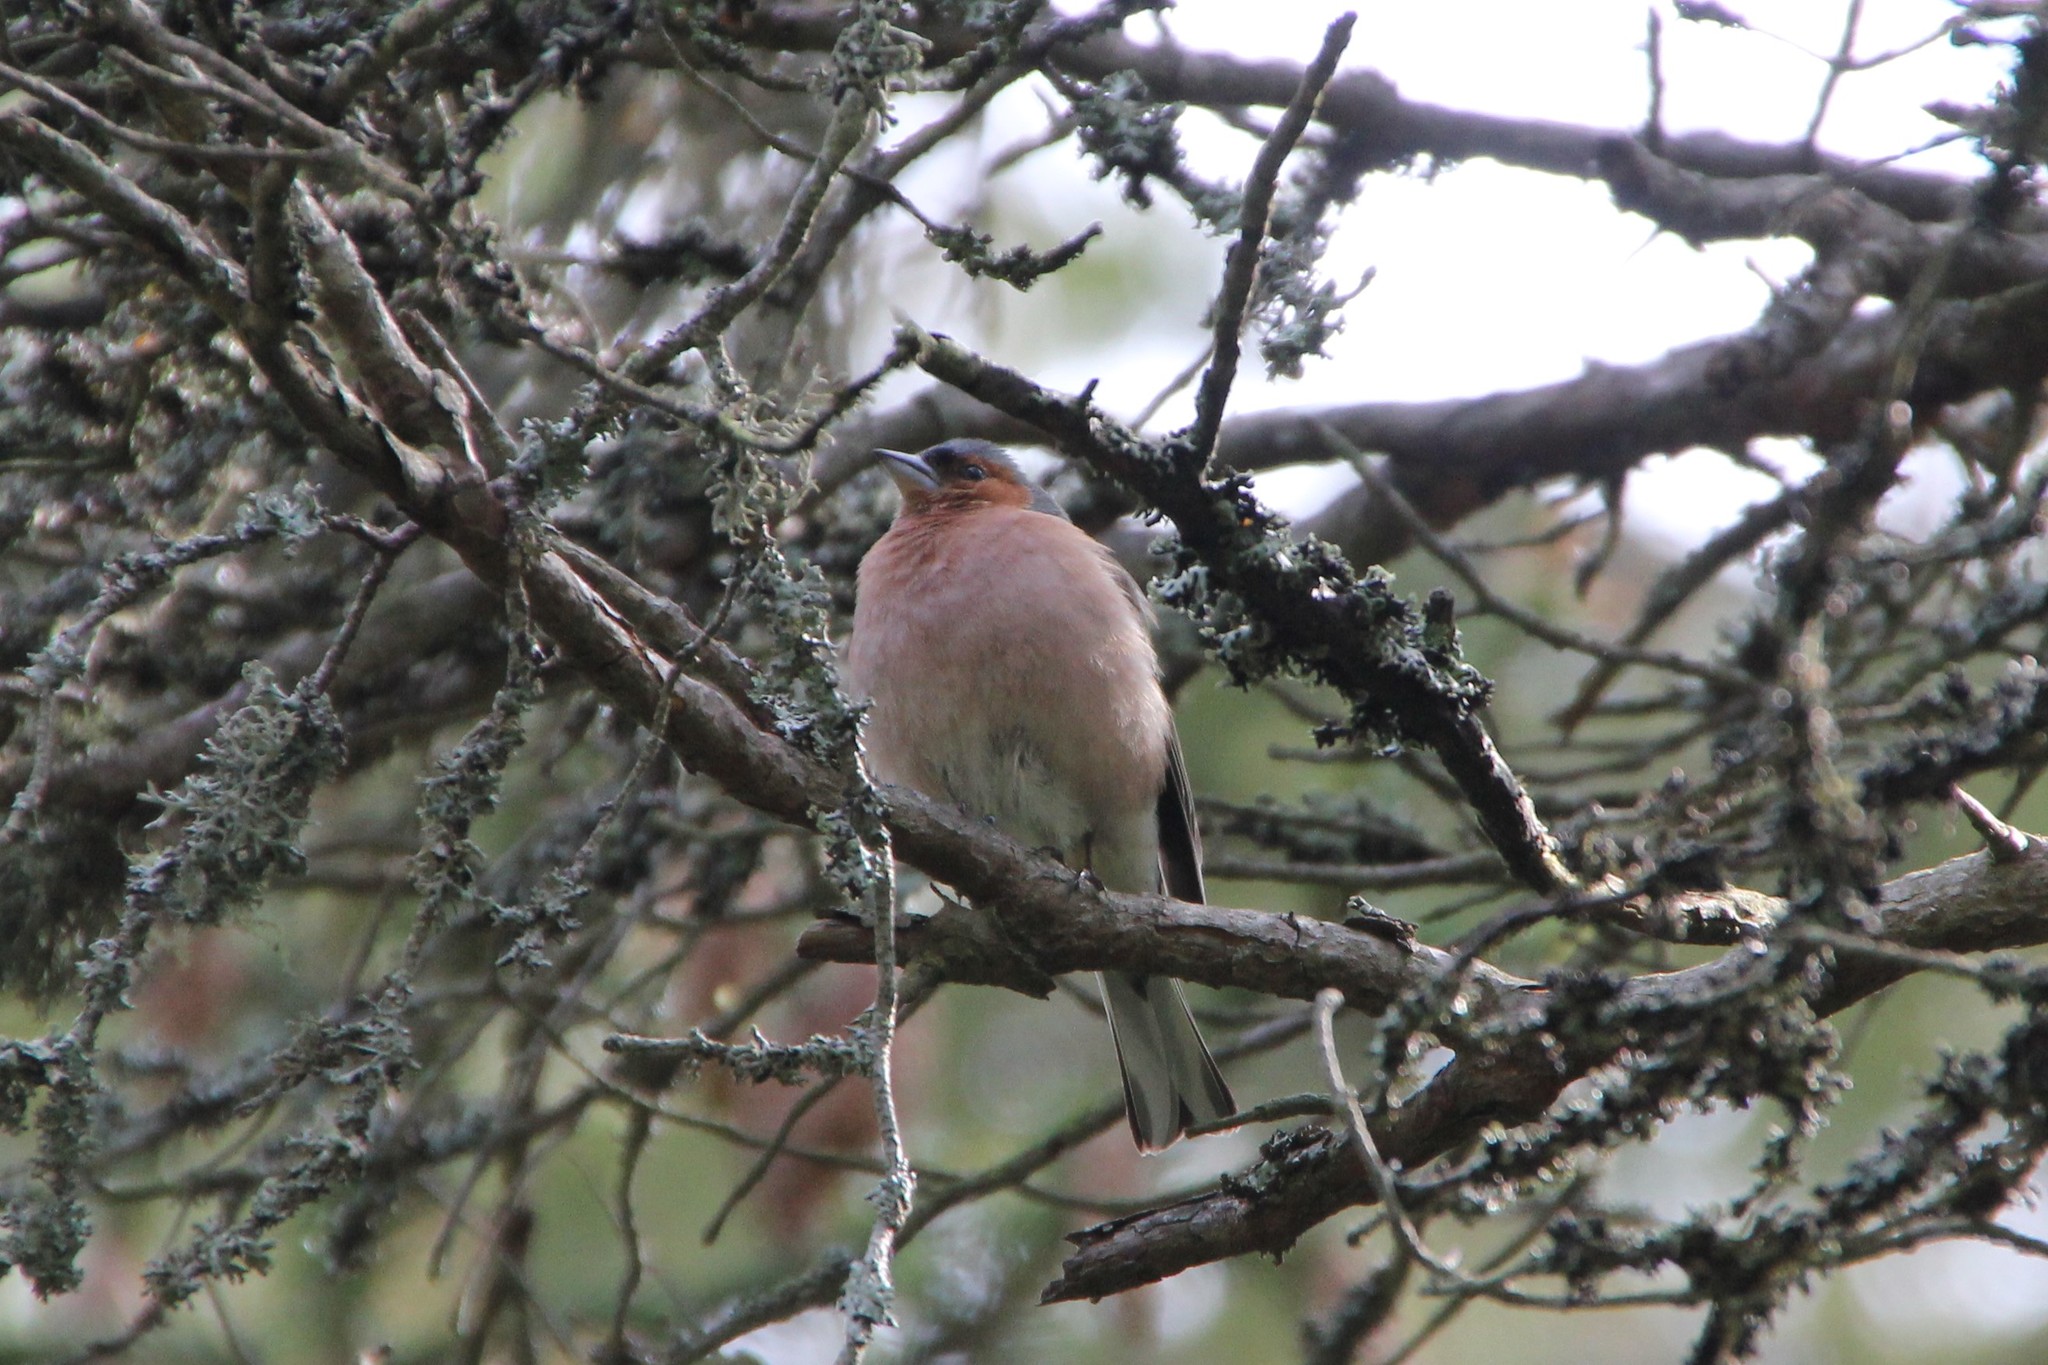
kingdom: Animalia
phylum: Chordata
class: Aves
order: Passeriformes
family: Fringillidae
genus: Fringilla
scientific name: Fringilla coelebs
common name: Common chaffinch
